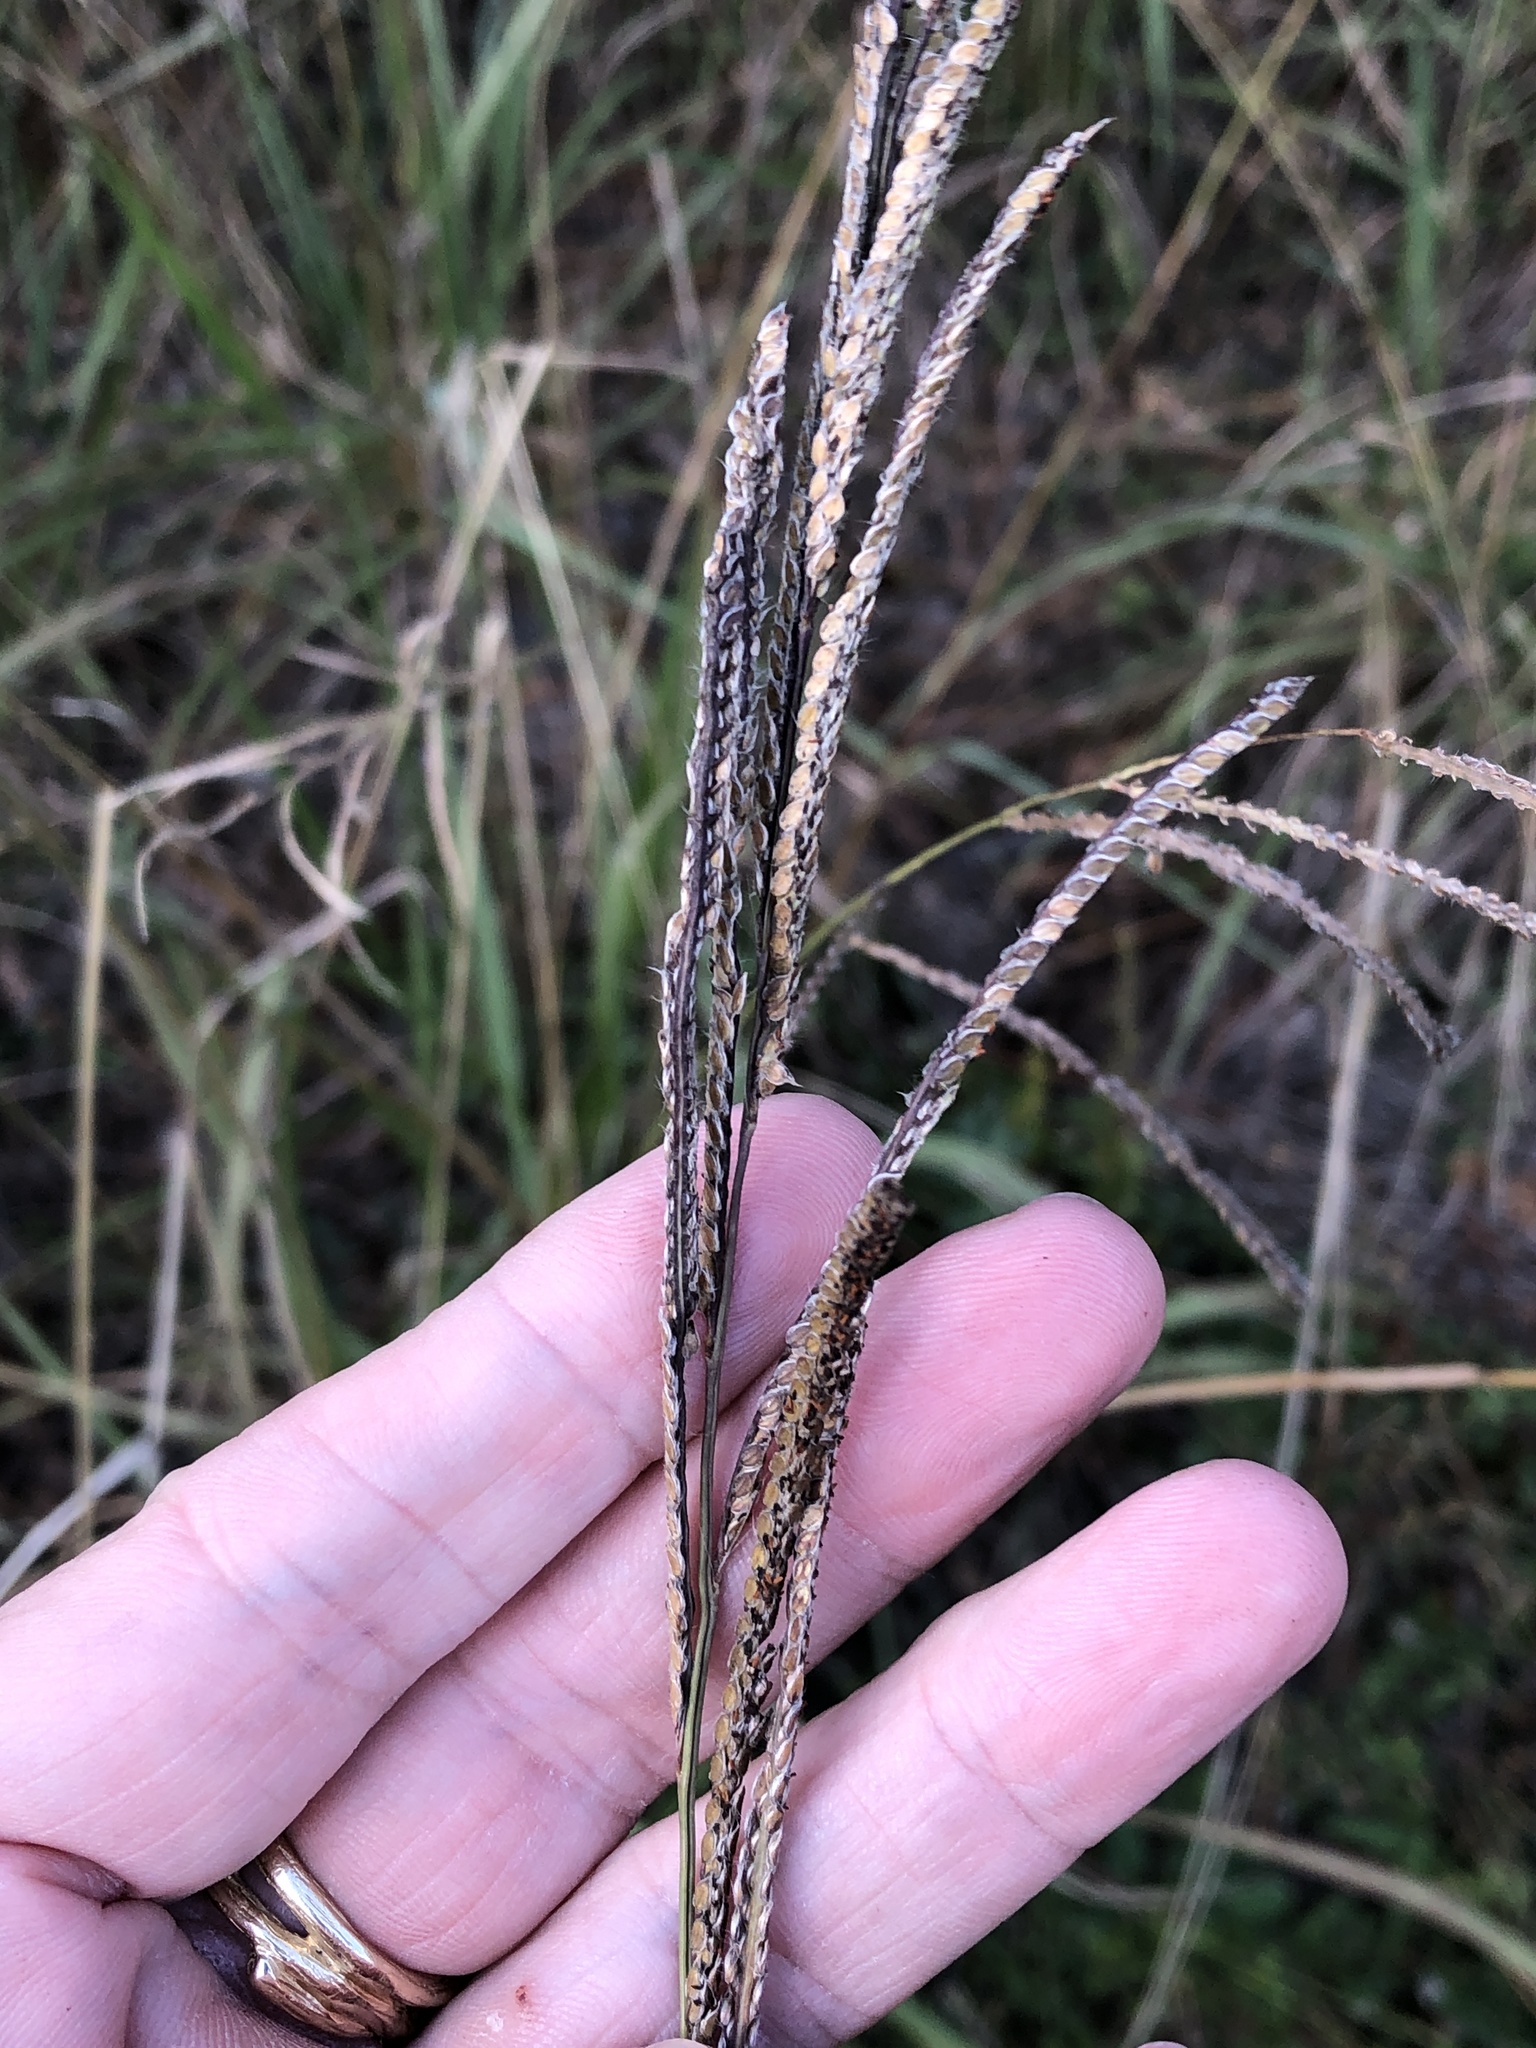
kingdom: Plantae
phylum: Tracheophyta
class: Liliopsida
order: Poales
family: Poaceae
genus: Paspalum
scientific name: Paspalum urvillei
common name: Vasey's grass
